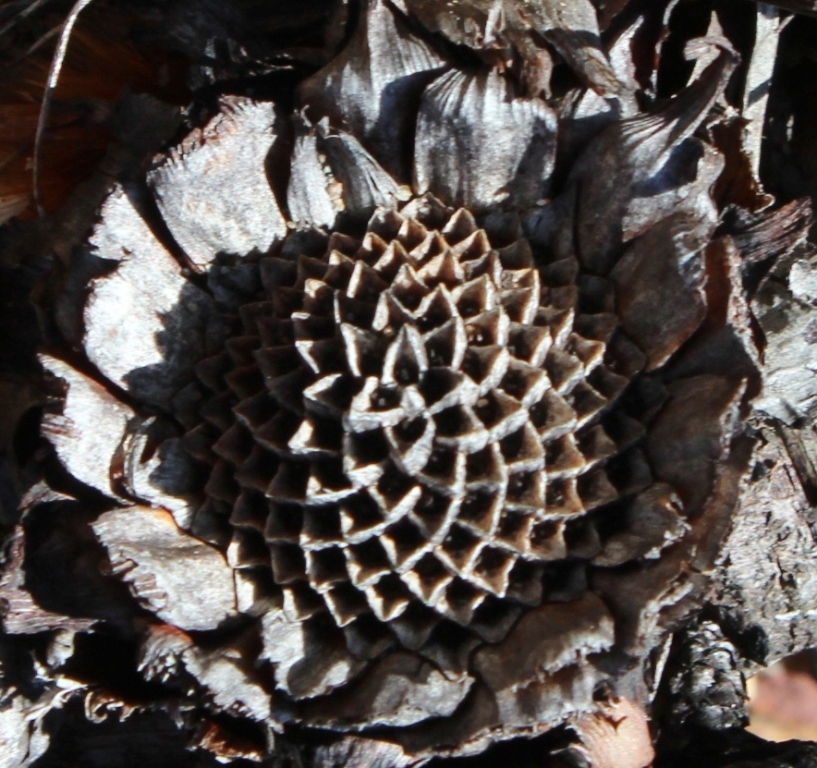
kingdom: Plantae
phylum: Tracheophyta
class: Magnoliopsida
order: Proteales
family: Proteaceae
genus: Protea
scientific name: Protea amplexicaulis
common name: Clasping-leaf sugarbush
